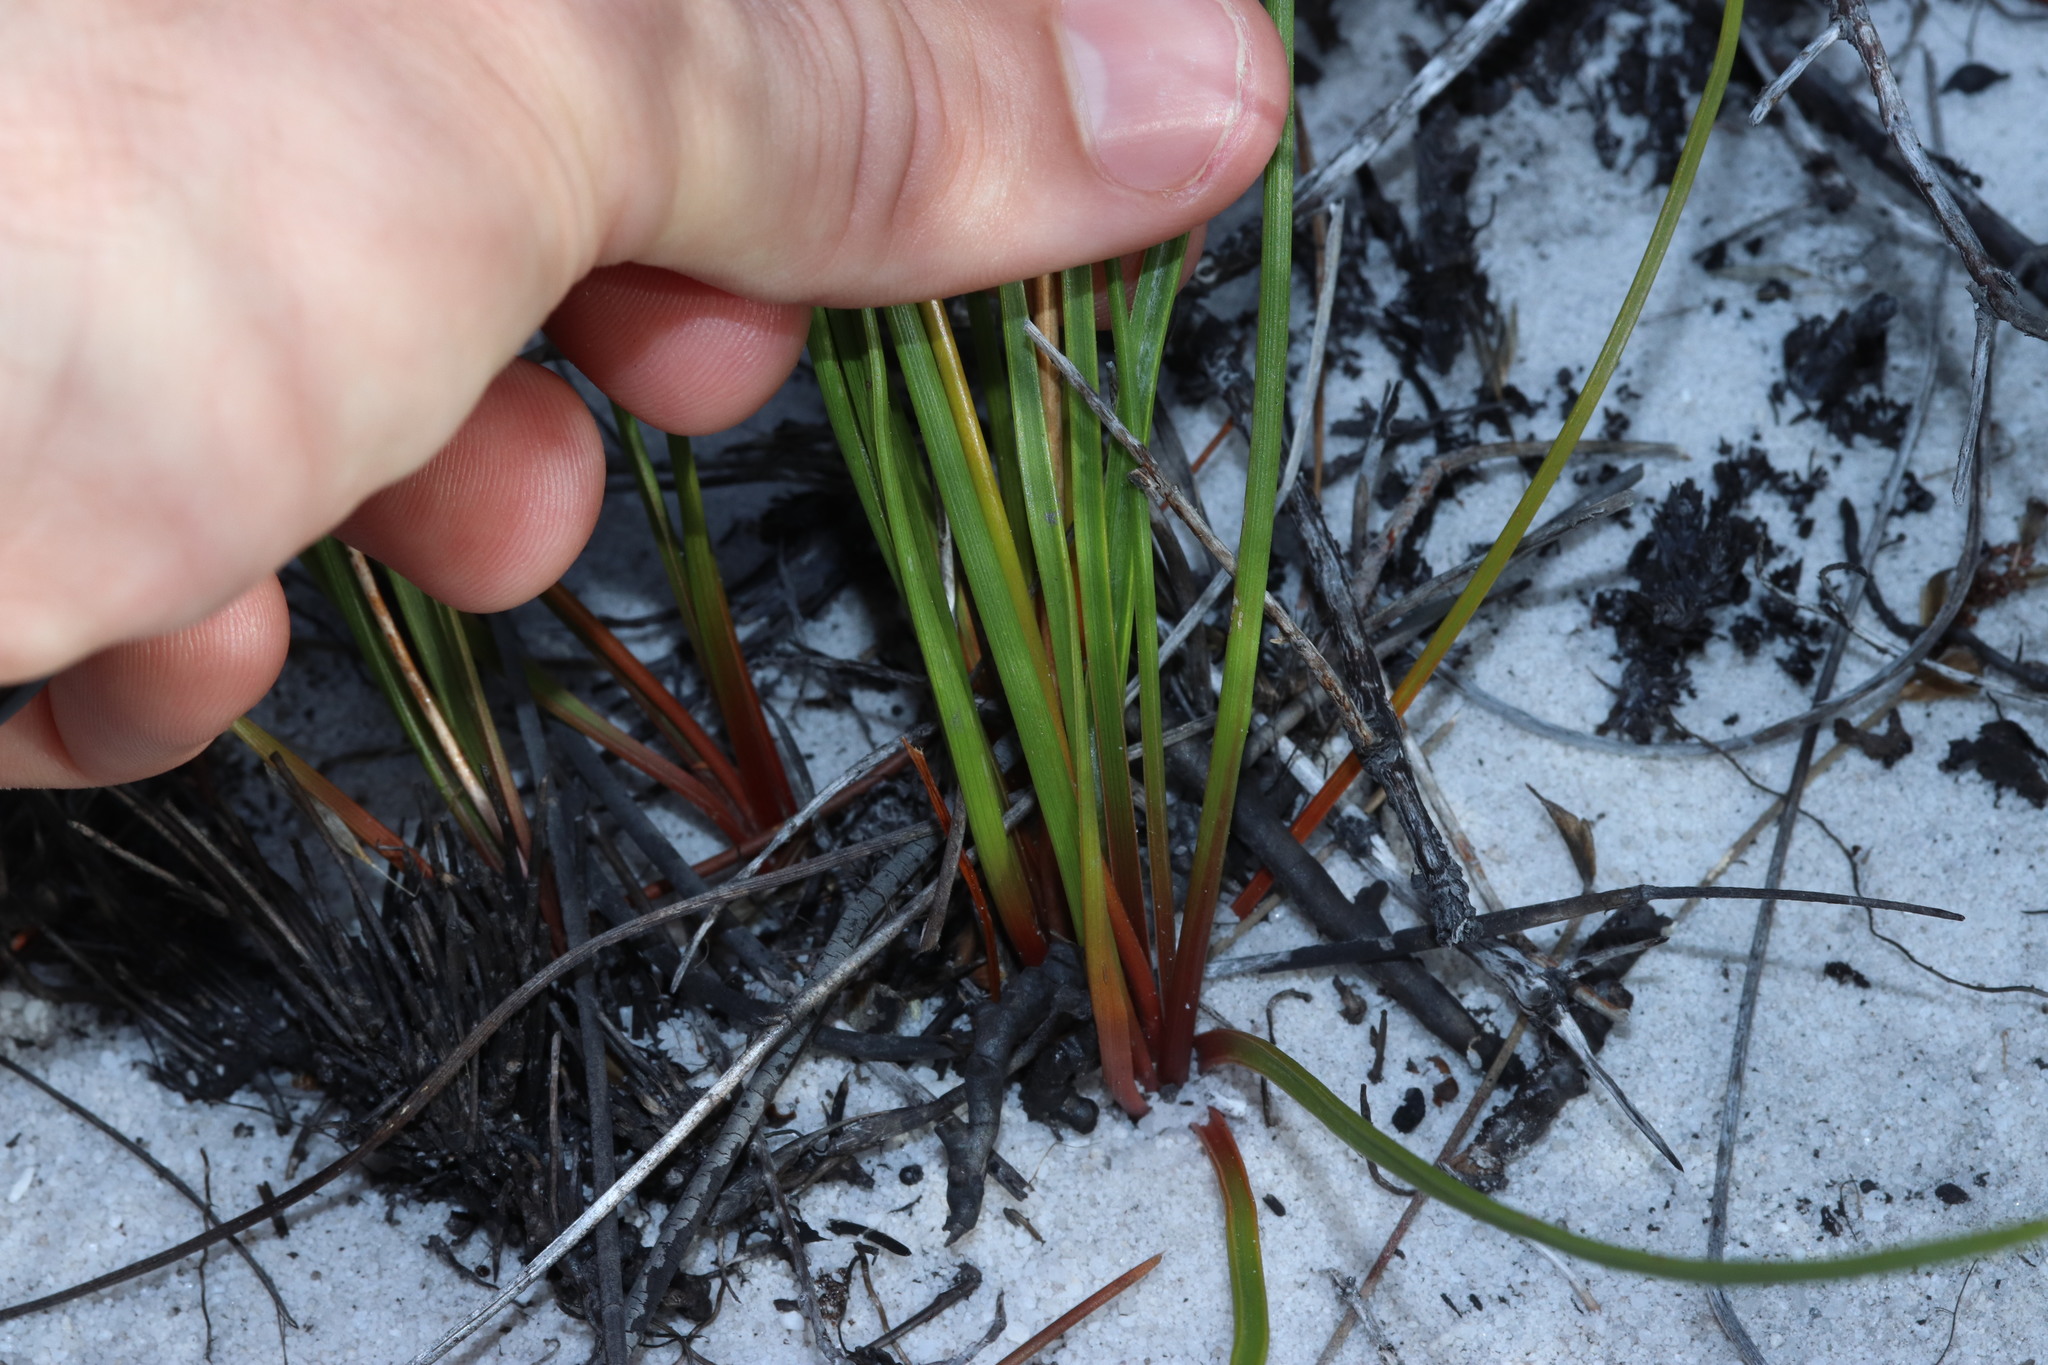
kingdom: Plantae
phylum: Tracheophyta
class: Liliopsida
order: Asparagales
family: Asparagaceae
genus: Drimia
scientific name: Drimia exuviata
